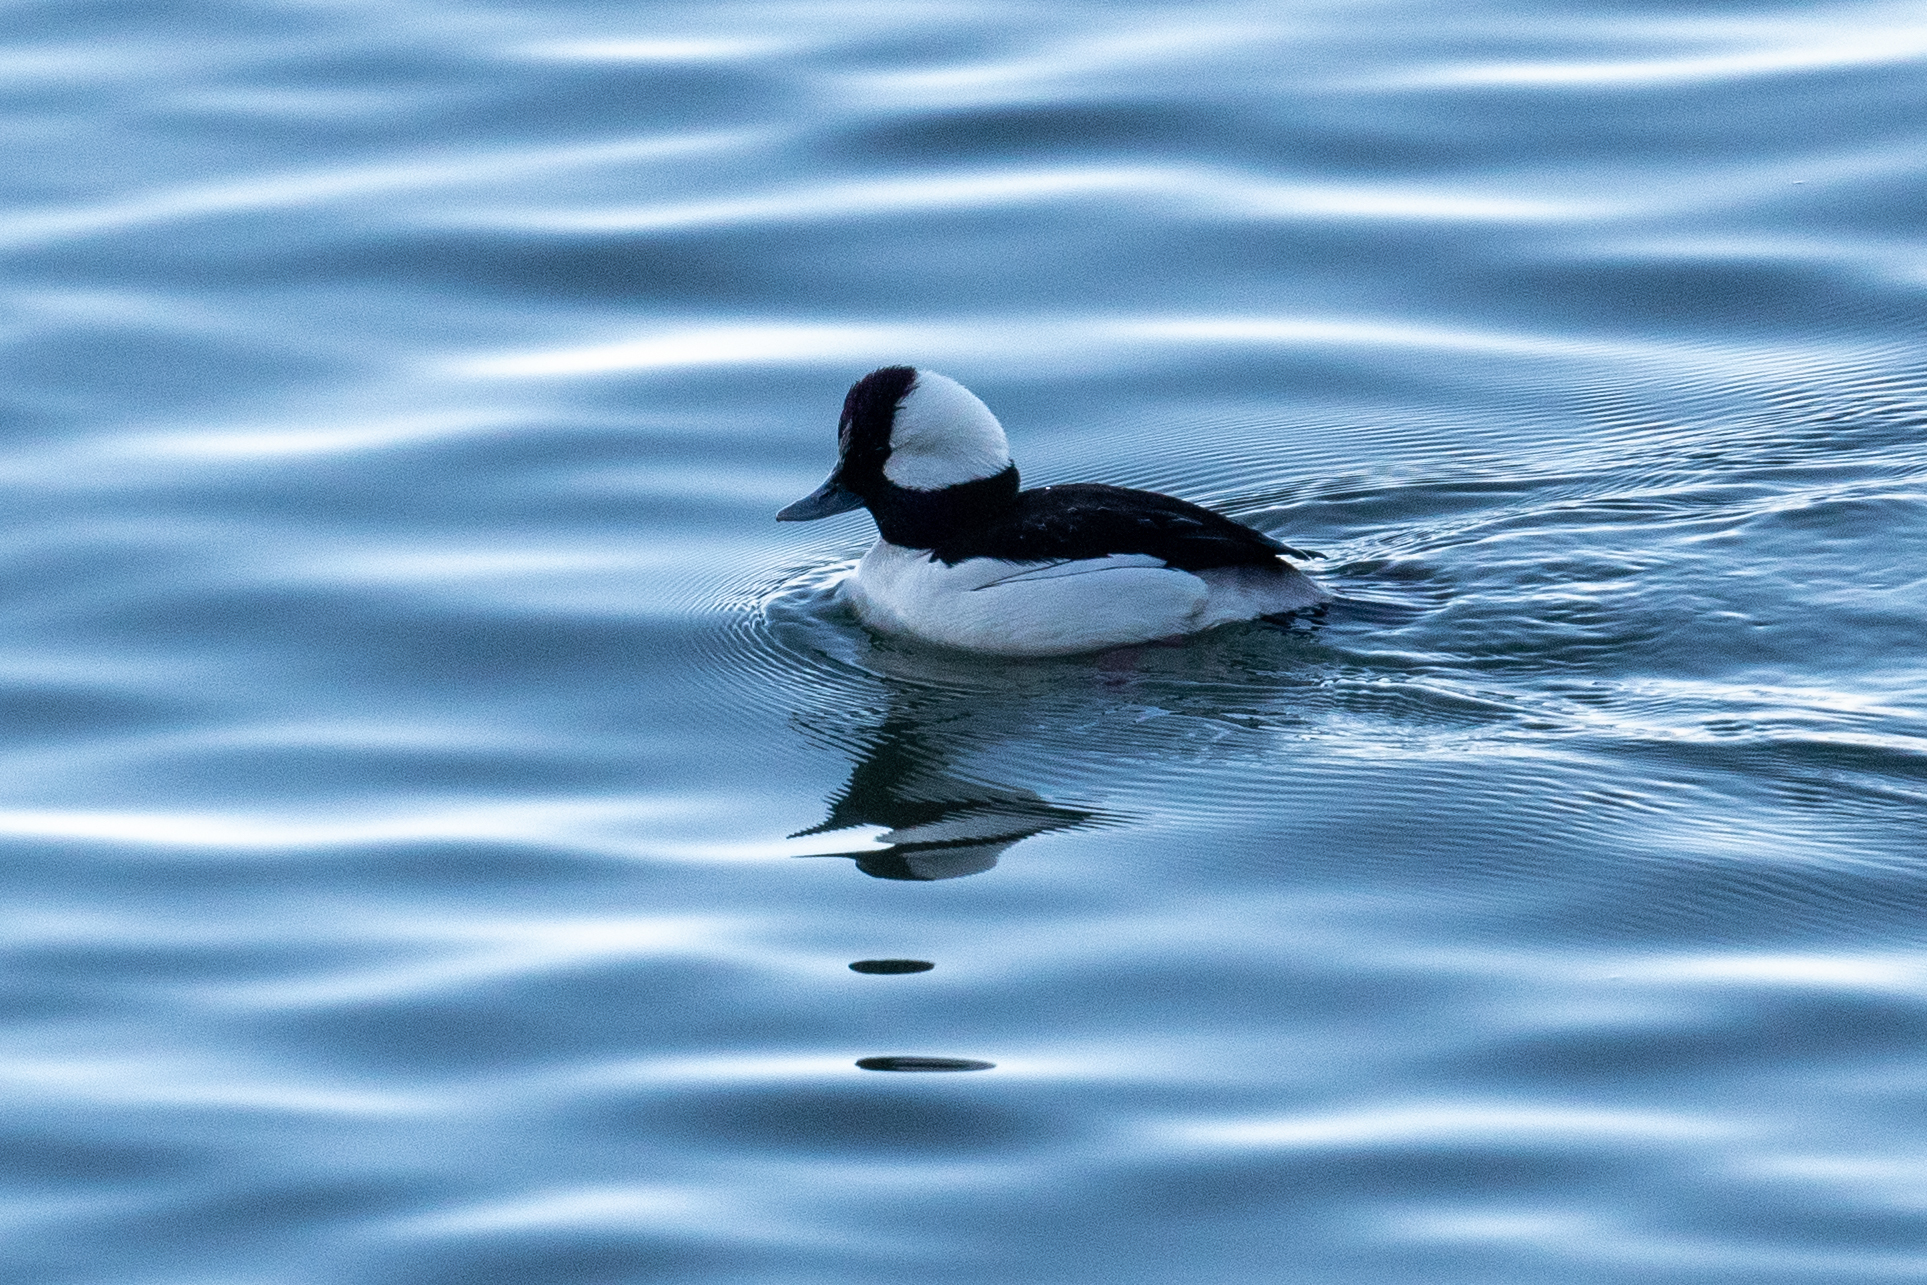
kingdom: Animalia
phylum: Chordata
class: Aves
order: Anseriformes
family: Anatidae
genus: Bucephala
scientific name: Bucephala albeola
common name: Bufflehead
